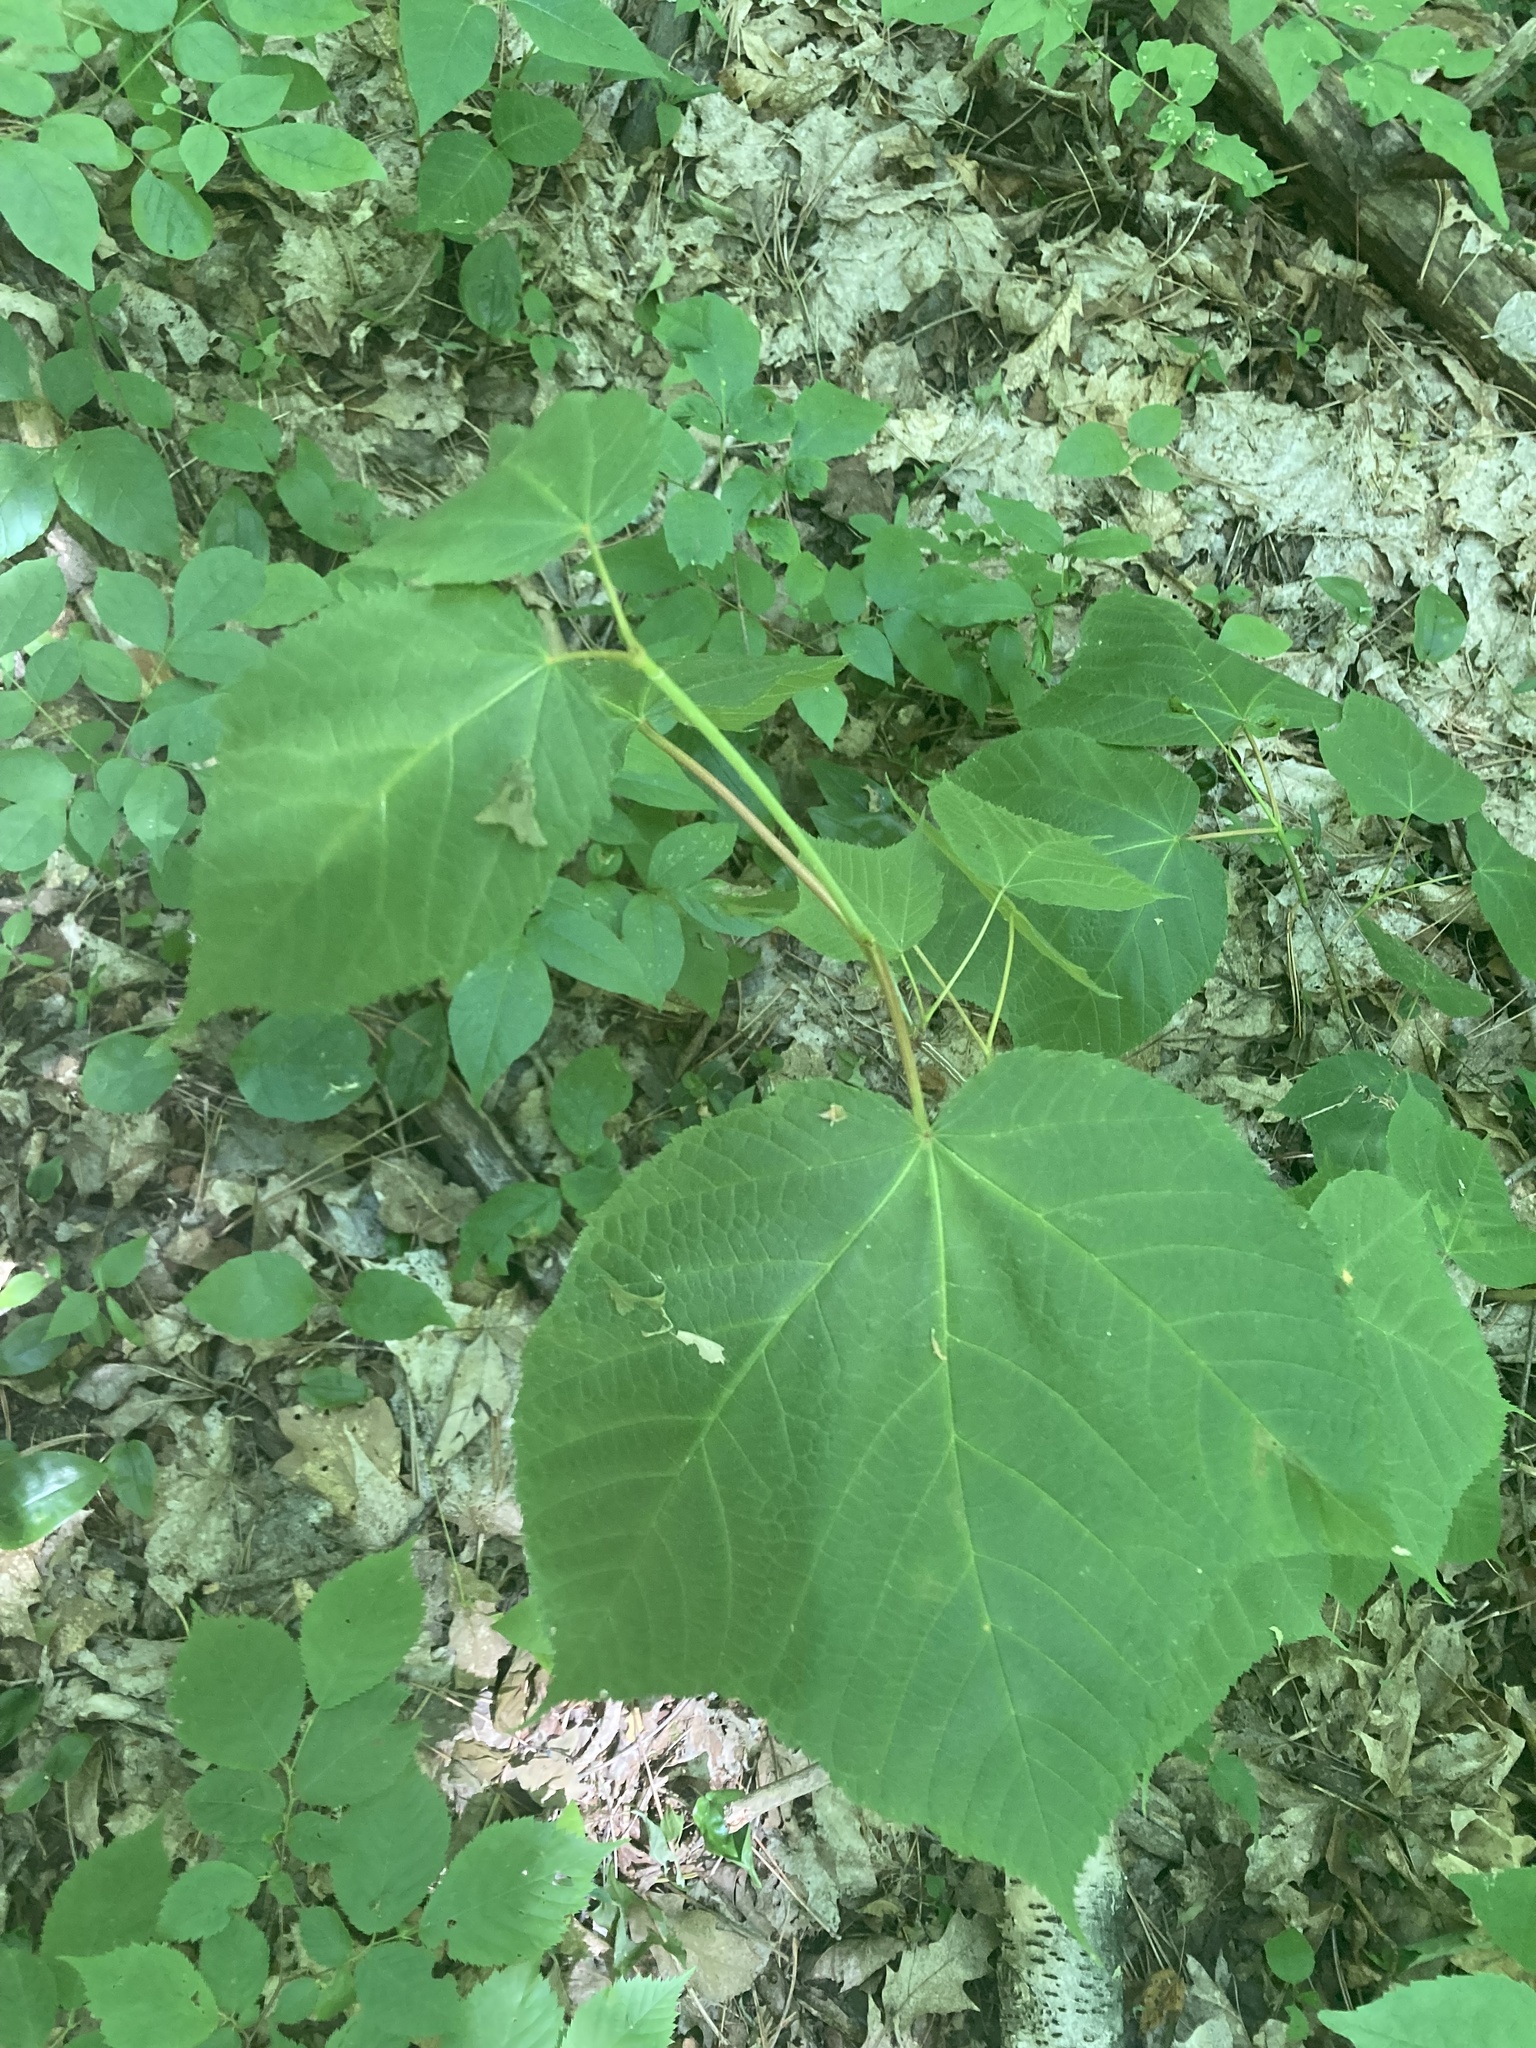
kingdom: Plantae
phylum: Tracheophyta
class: Magnoliopsida
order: Sapindales
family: Sapindaceae
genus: Acer
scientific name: Acer pensylvanicum
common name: Moosewood
